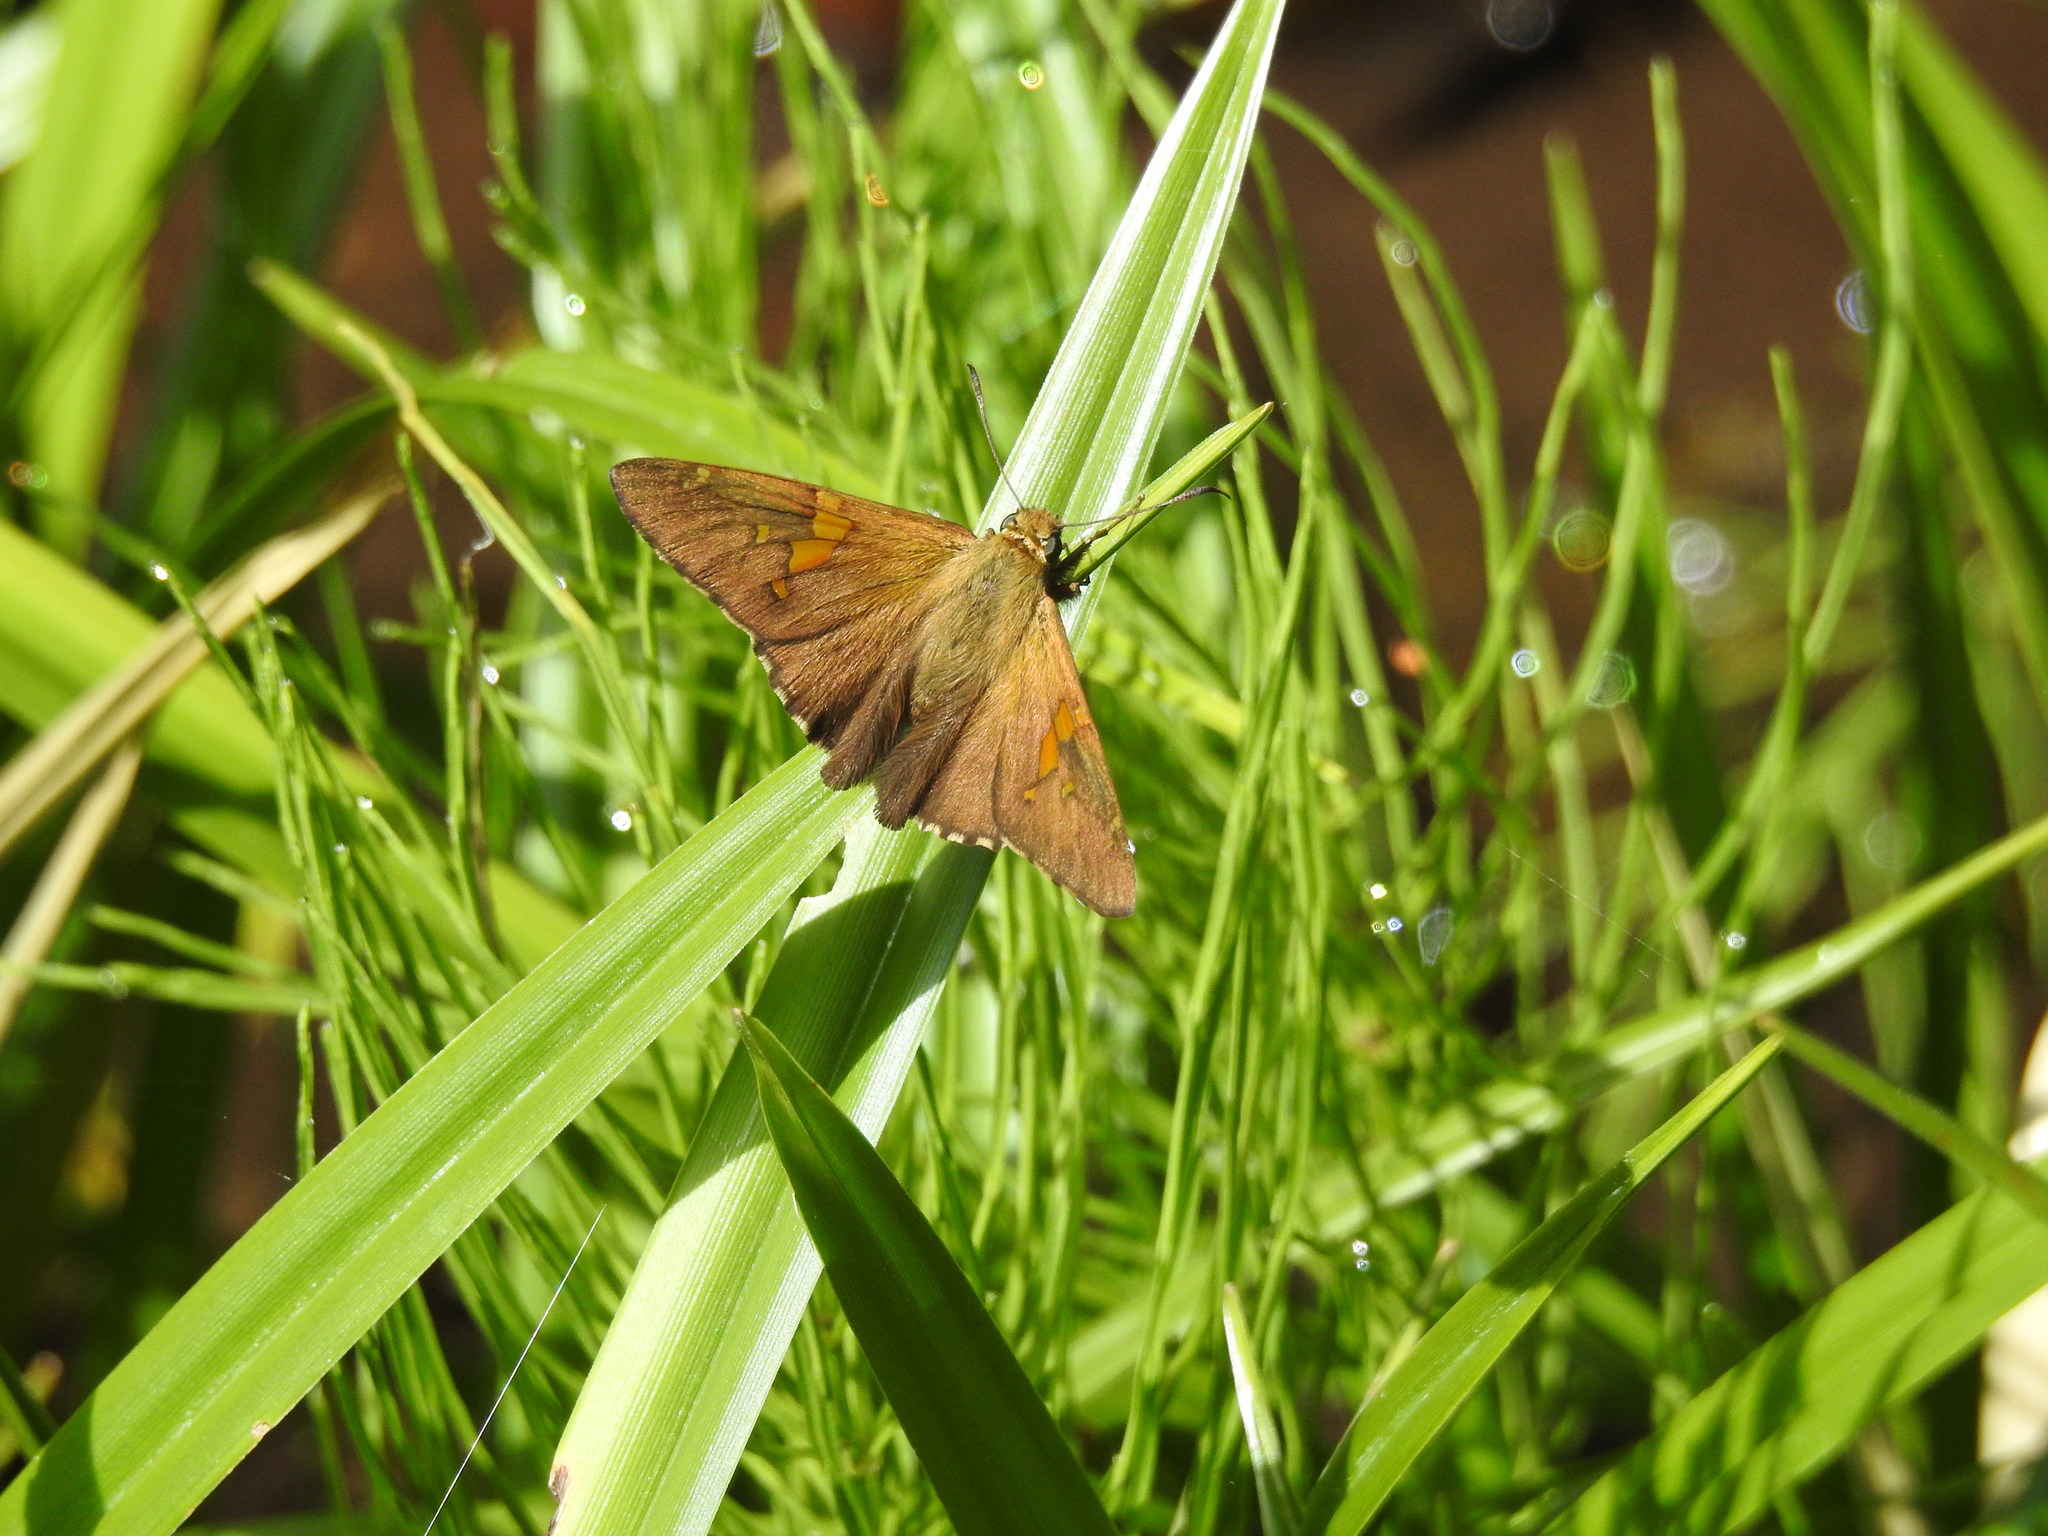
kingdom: Animalia
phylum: Arthropoda
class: Insecta
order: Lepidoptera
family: Hesperiidae
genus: Epargyreus
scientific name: Epargyreus clarus
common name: Silver-spotted skipper
